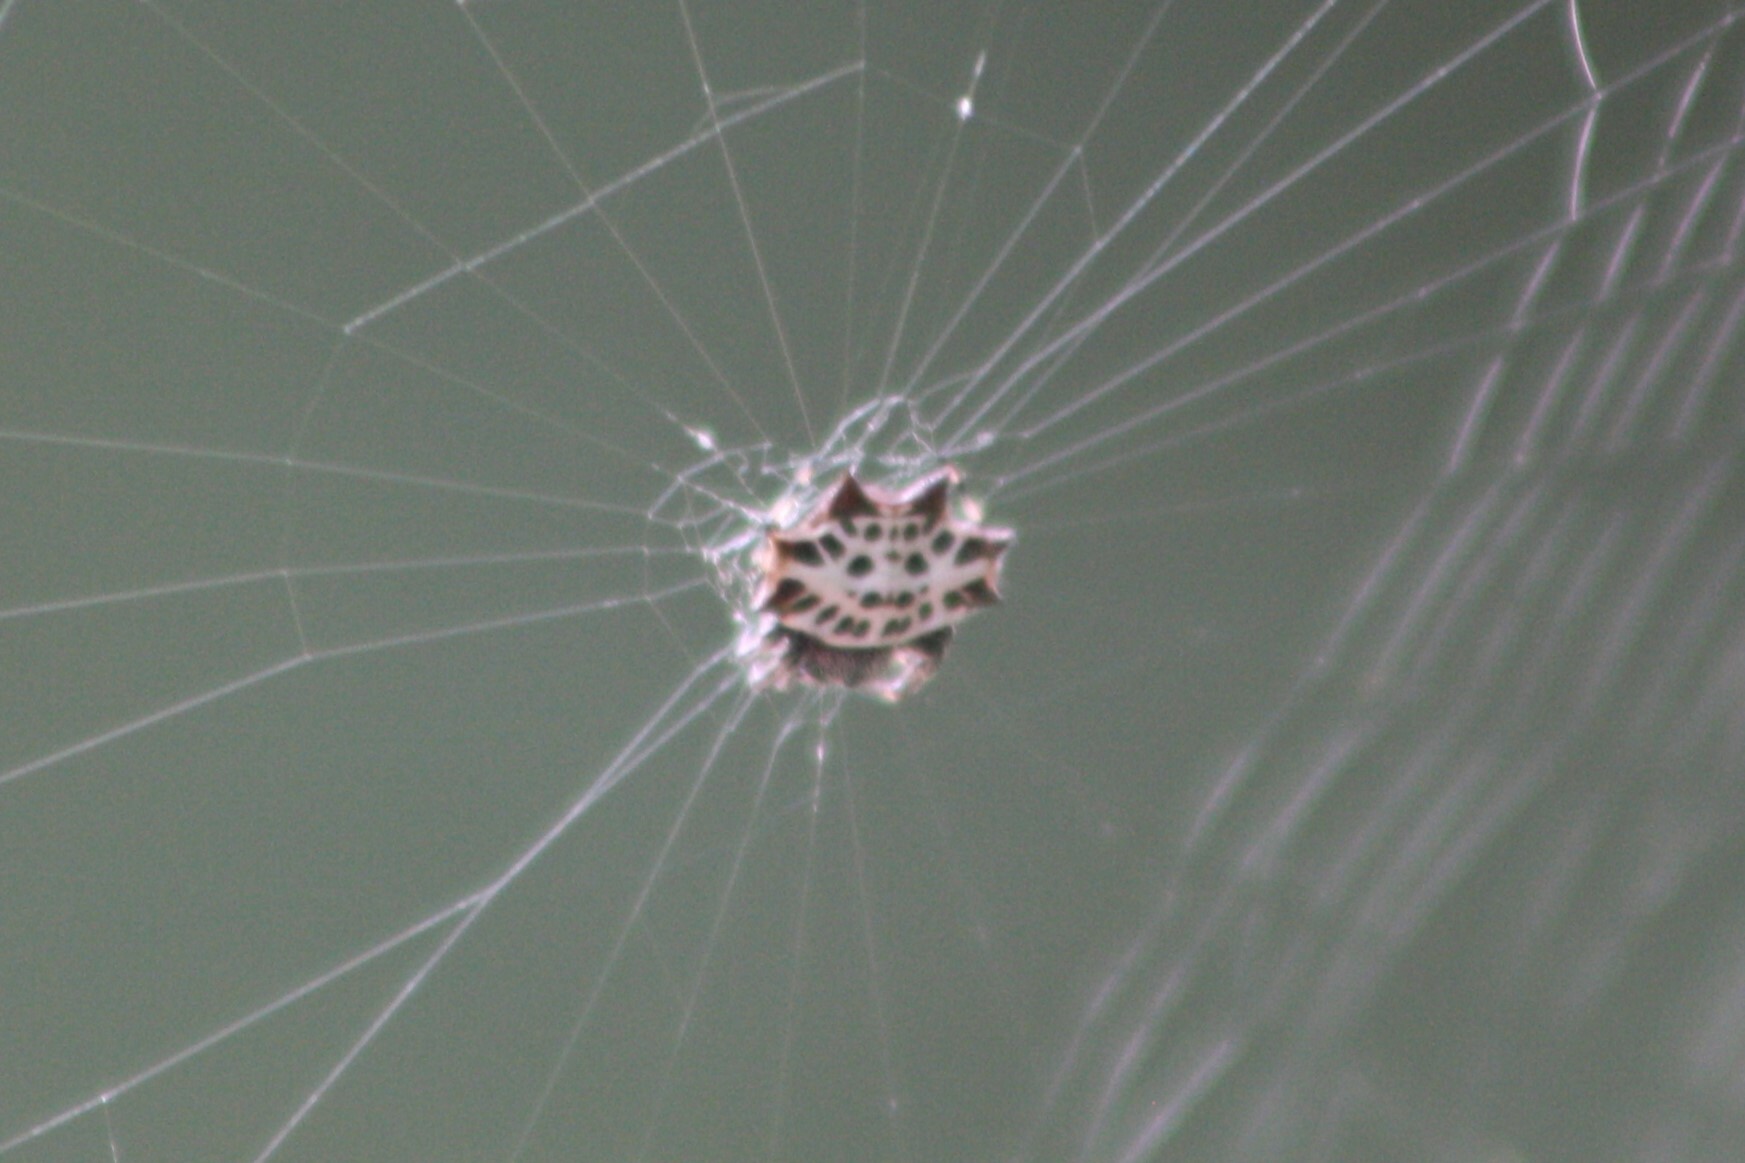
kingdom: Animalia
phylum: Arthropoda
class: Arachnida
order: Araneae
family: Araneidae
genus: Gasteracantha
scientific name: Gasteracantha cancriformis
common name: Orb weavers
